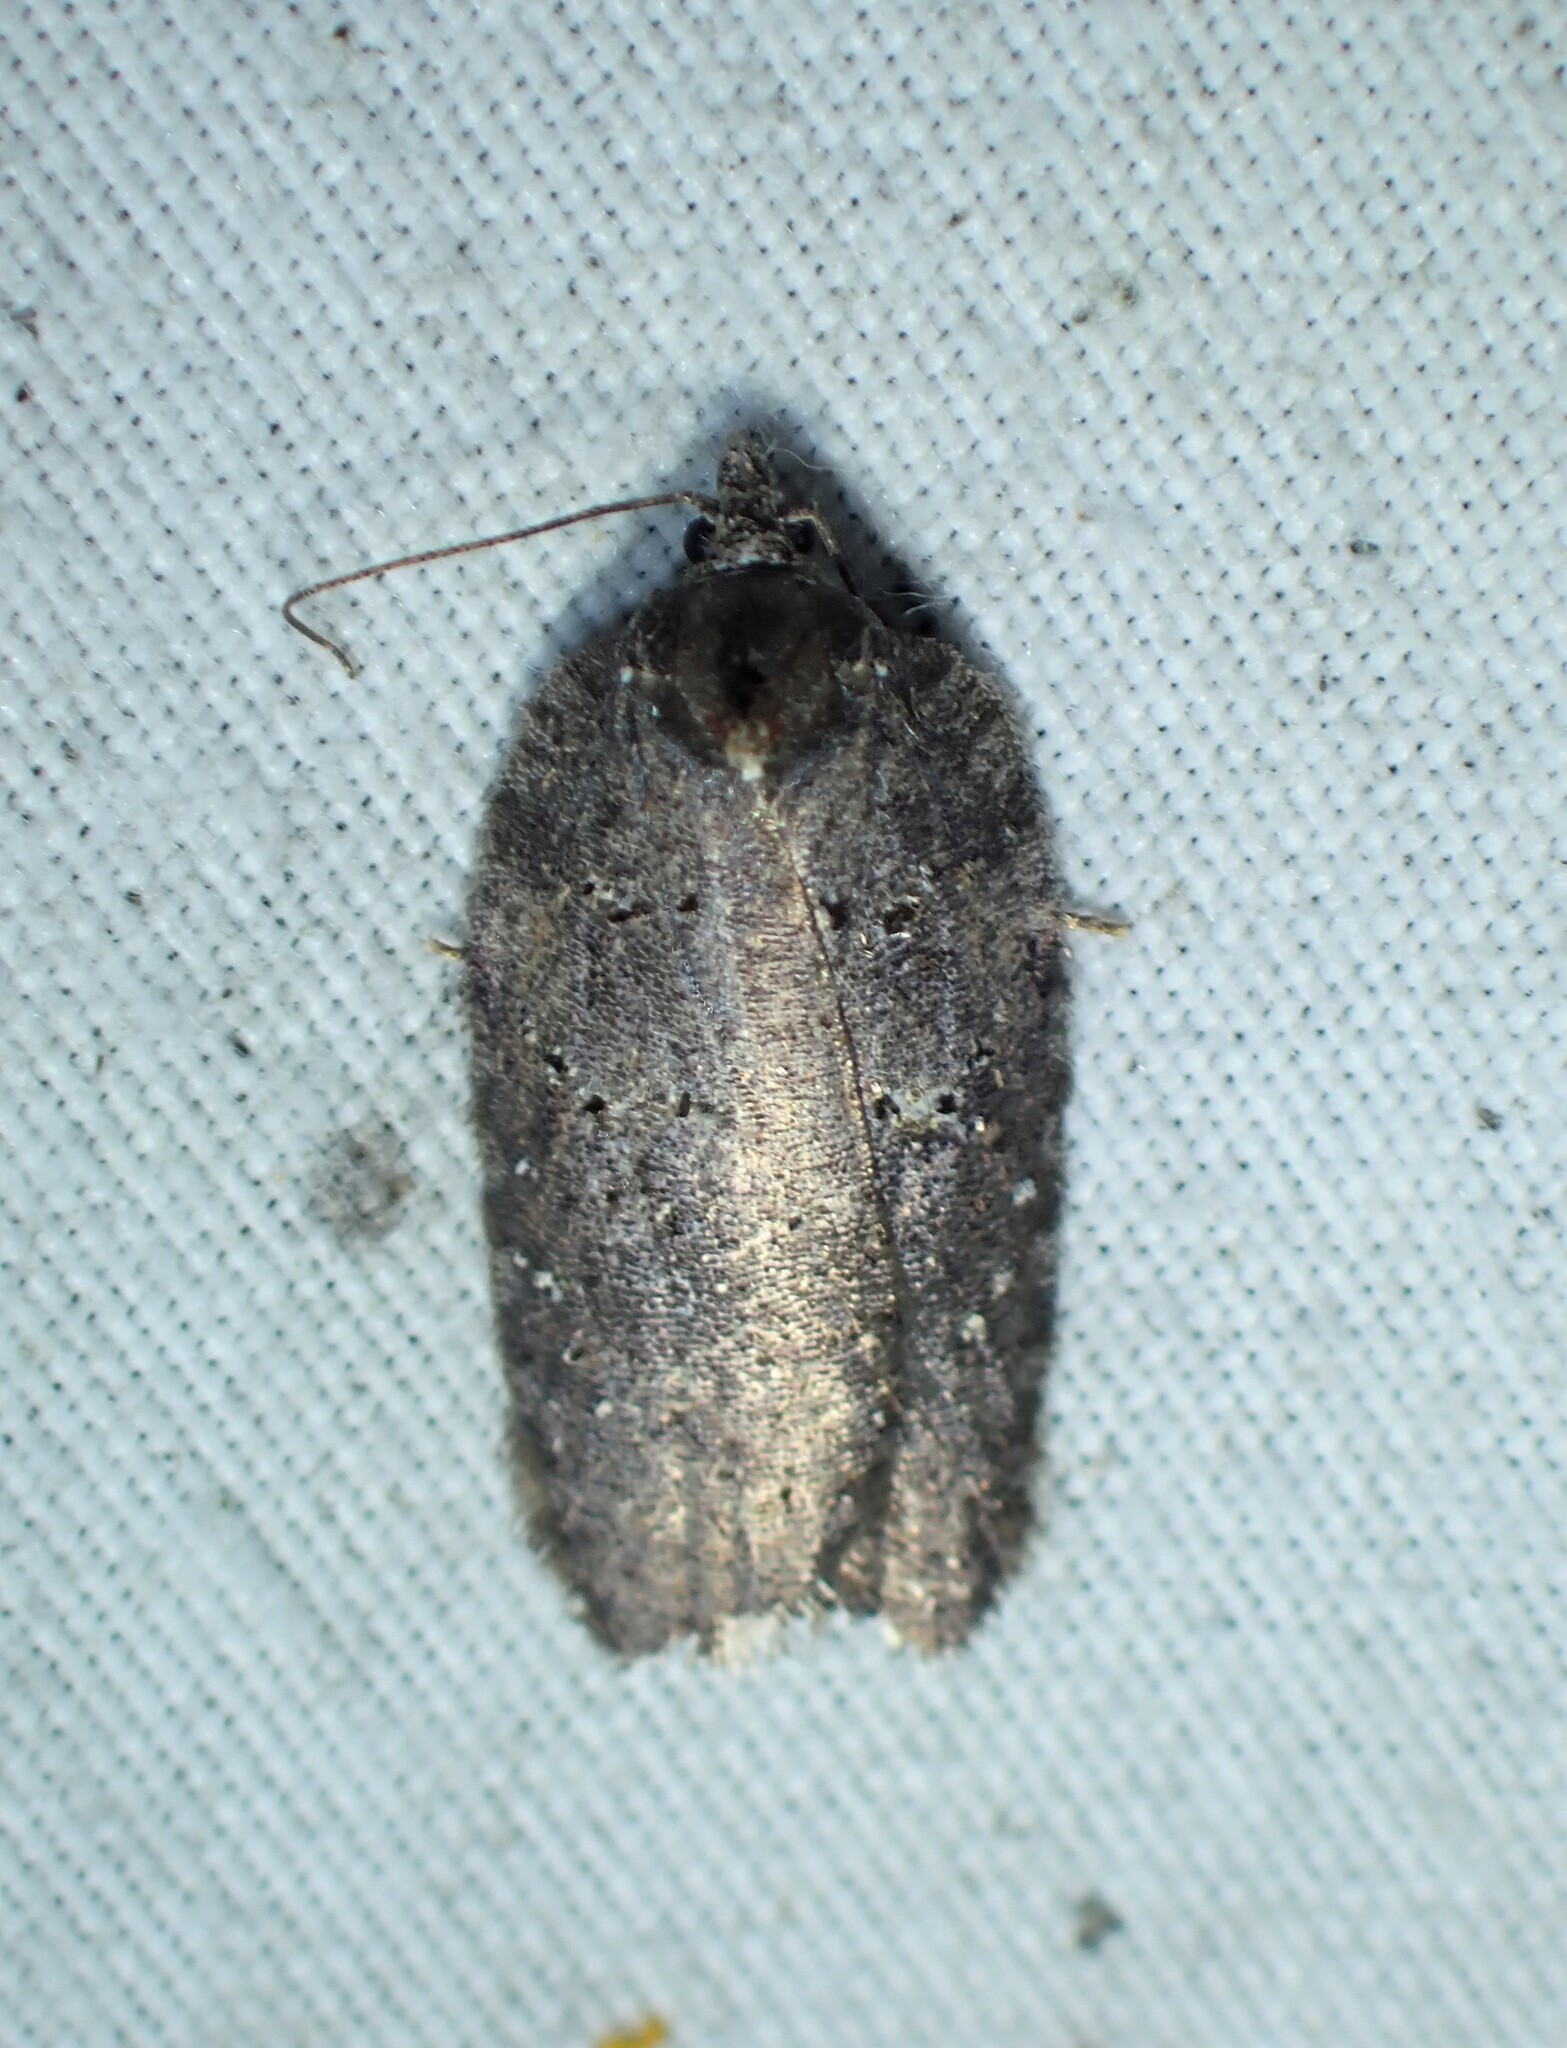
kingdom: Animalia
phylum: Arthropoda
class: Insecta
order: Lepidoptera
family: Tortricidae
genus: Acleris
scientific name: Acleris caliginosana
